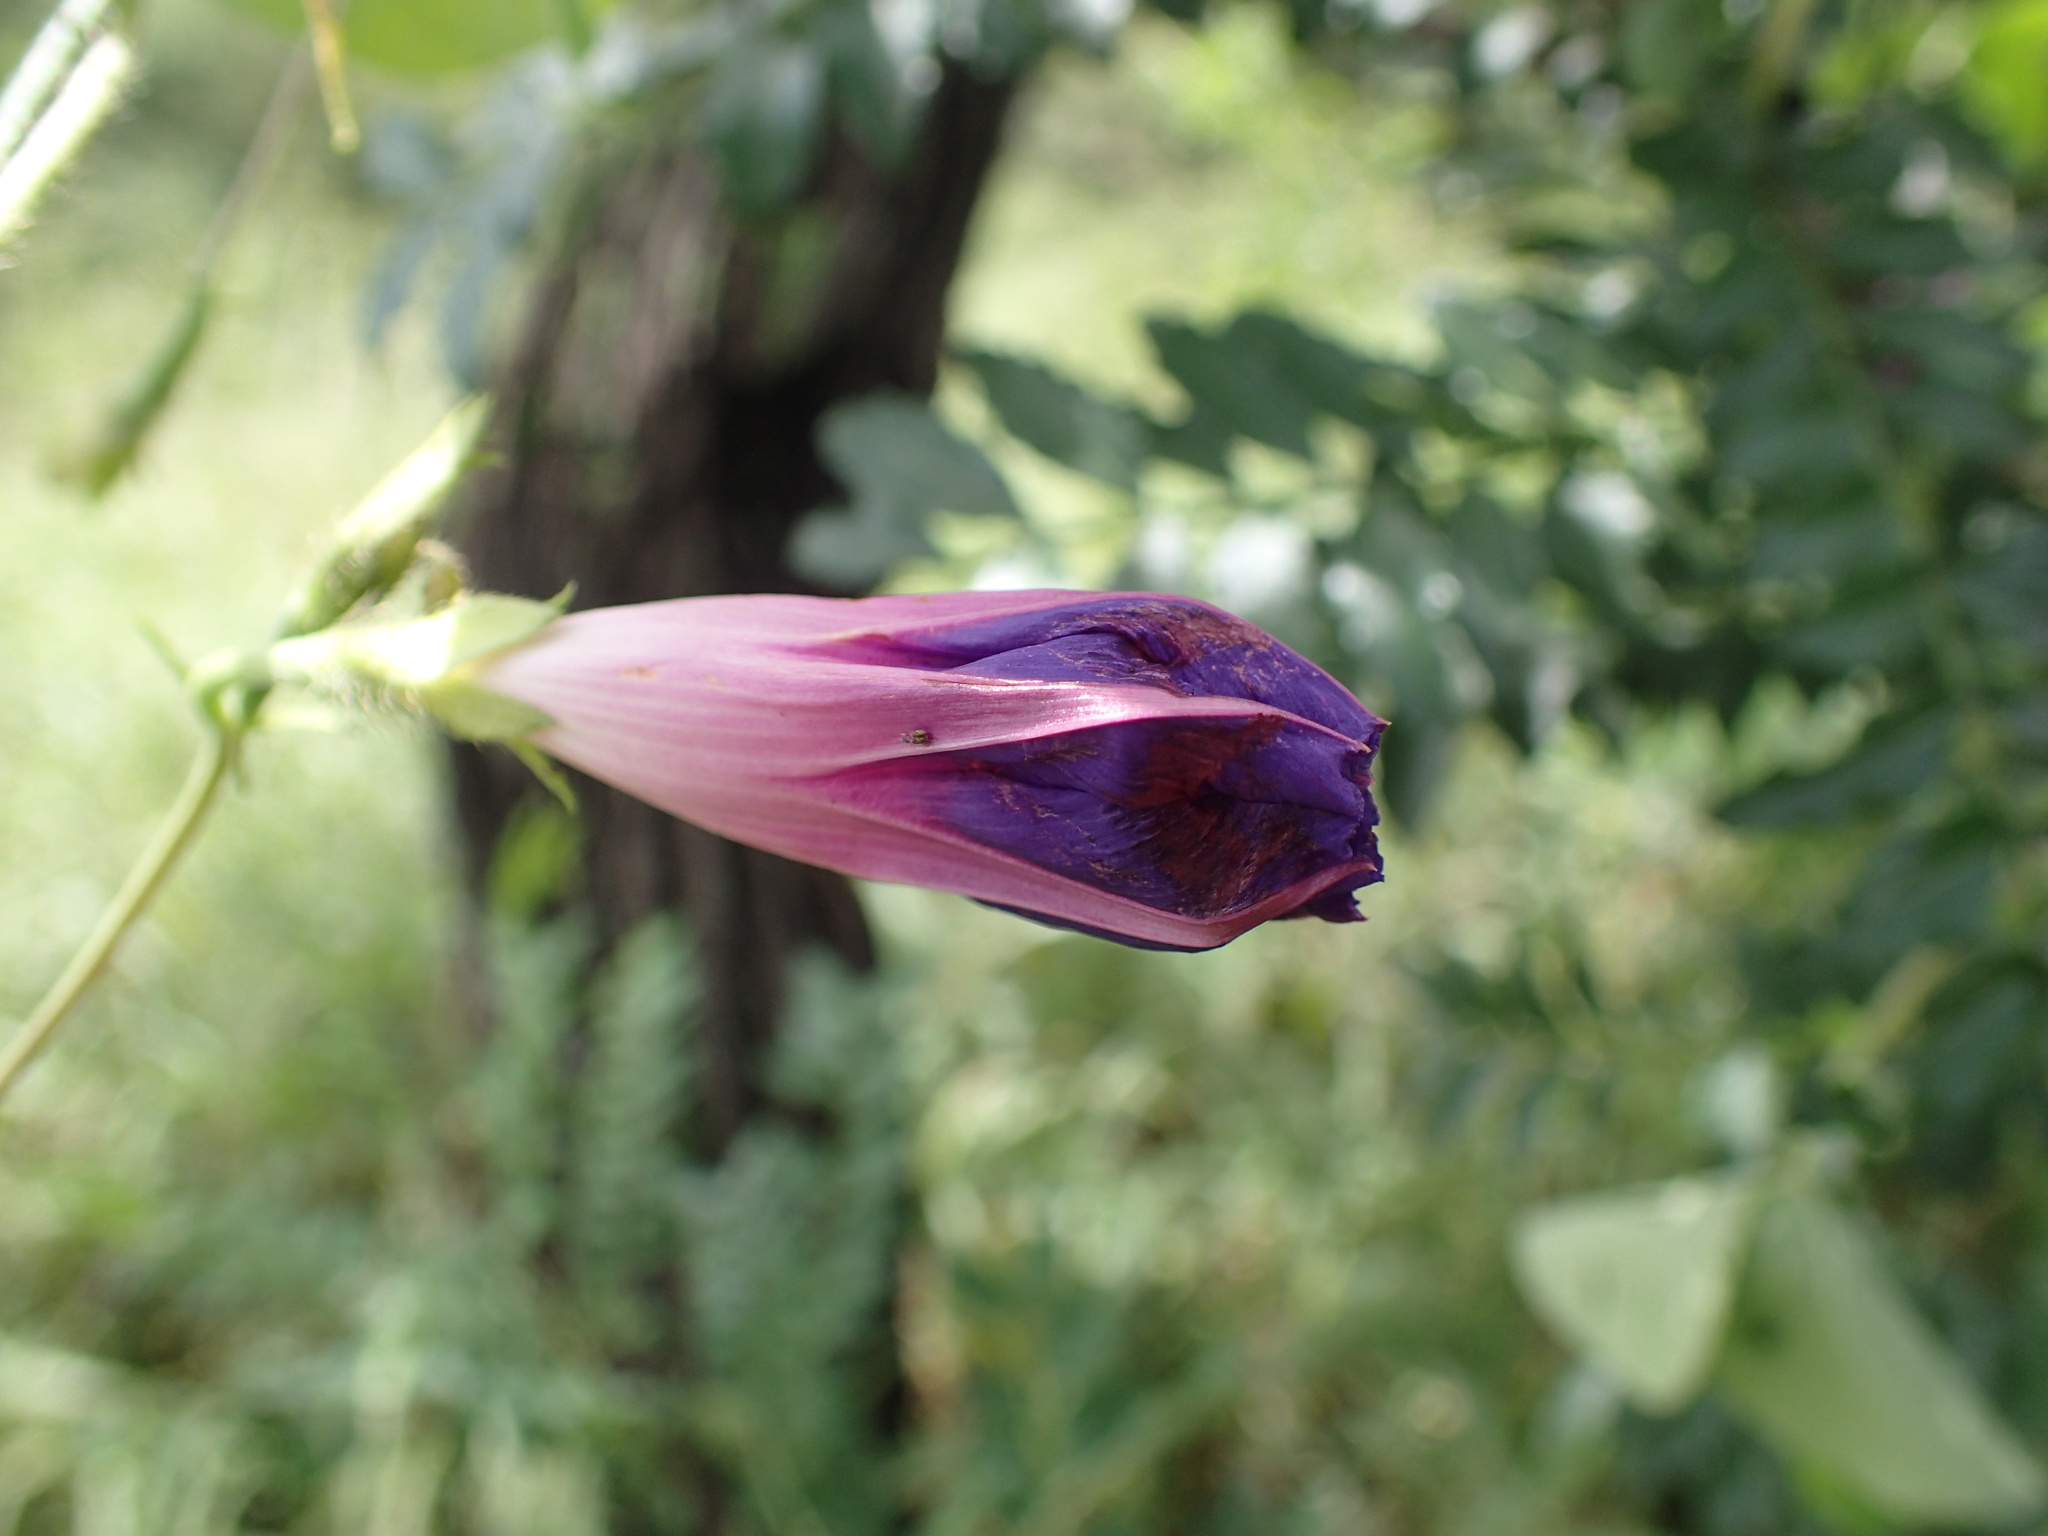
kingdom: Plantae
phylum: Tracheophyta
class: Magnoliopsida
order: Malpighiales
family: Passifloraceae
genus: Passiflora
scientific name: Passiflora suberosa
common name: Wild passionfruit
